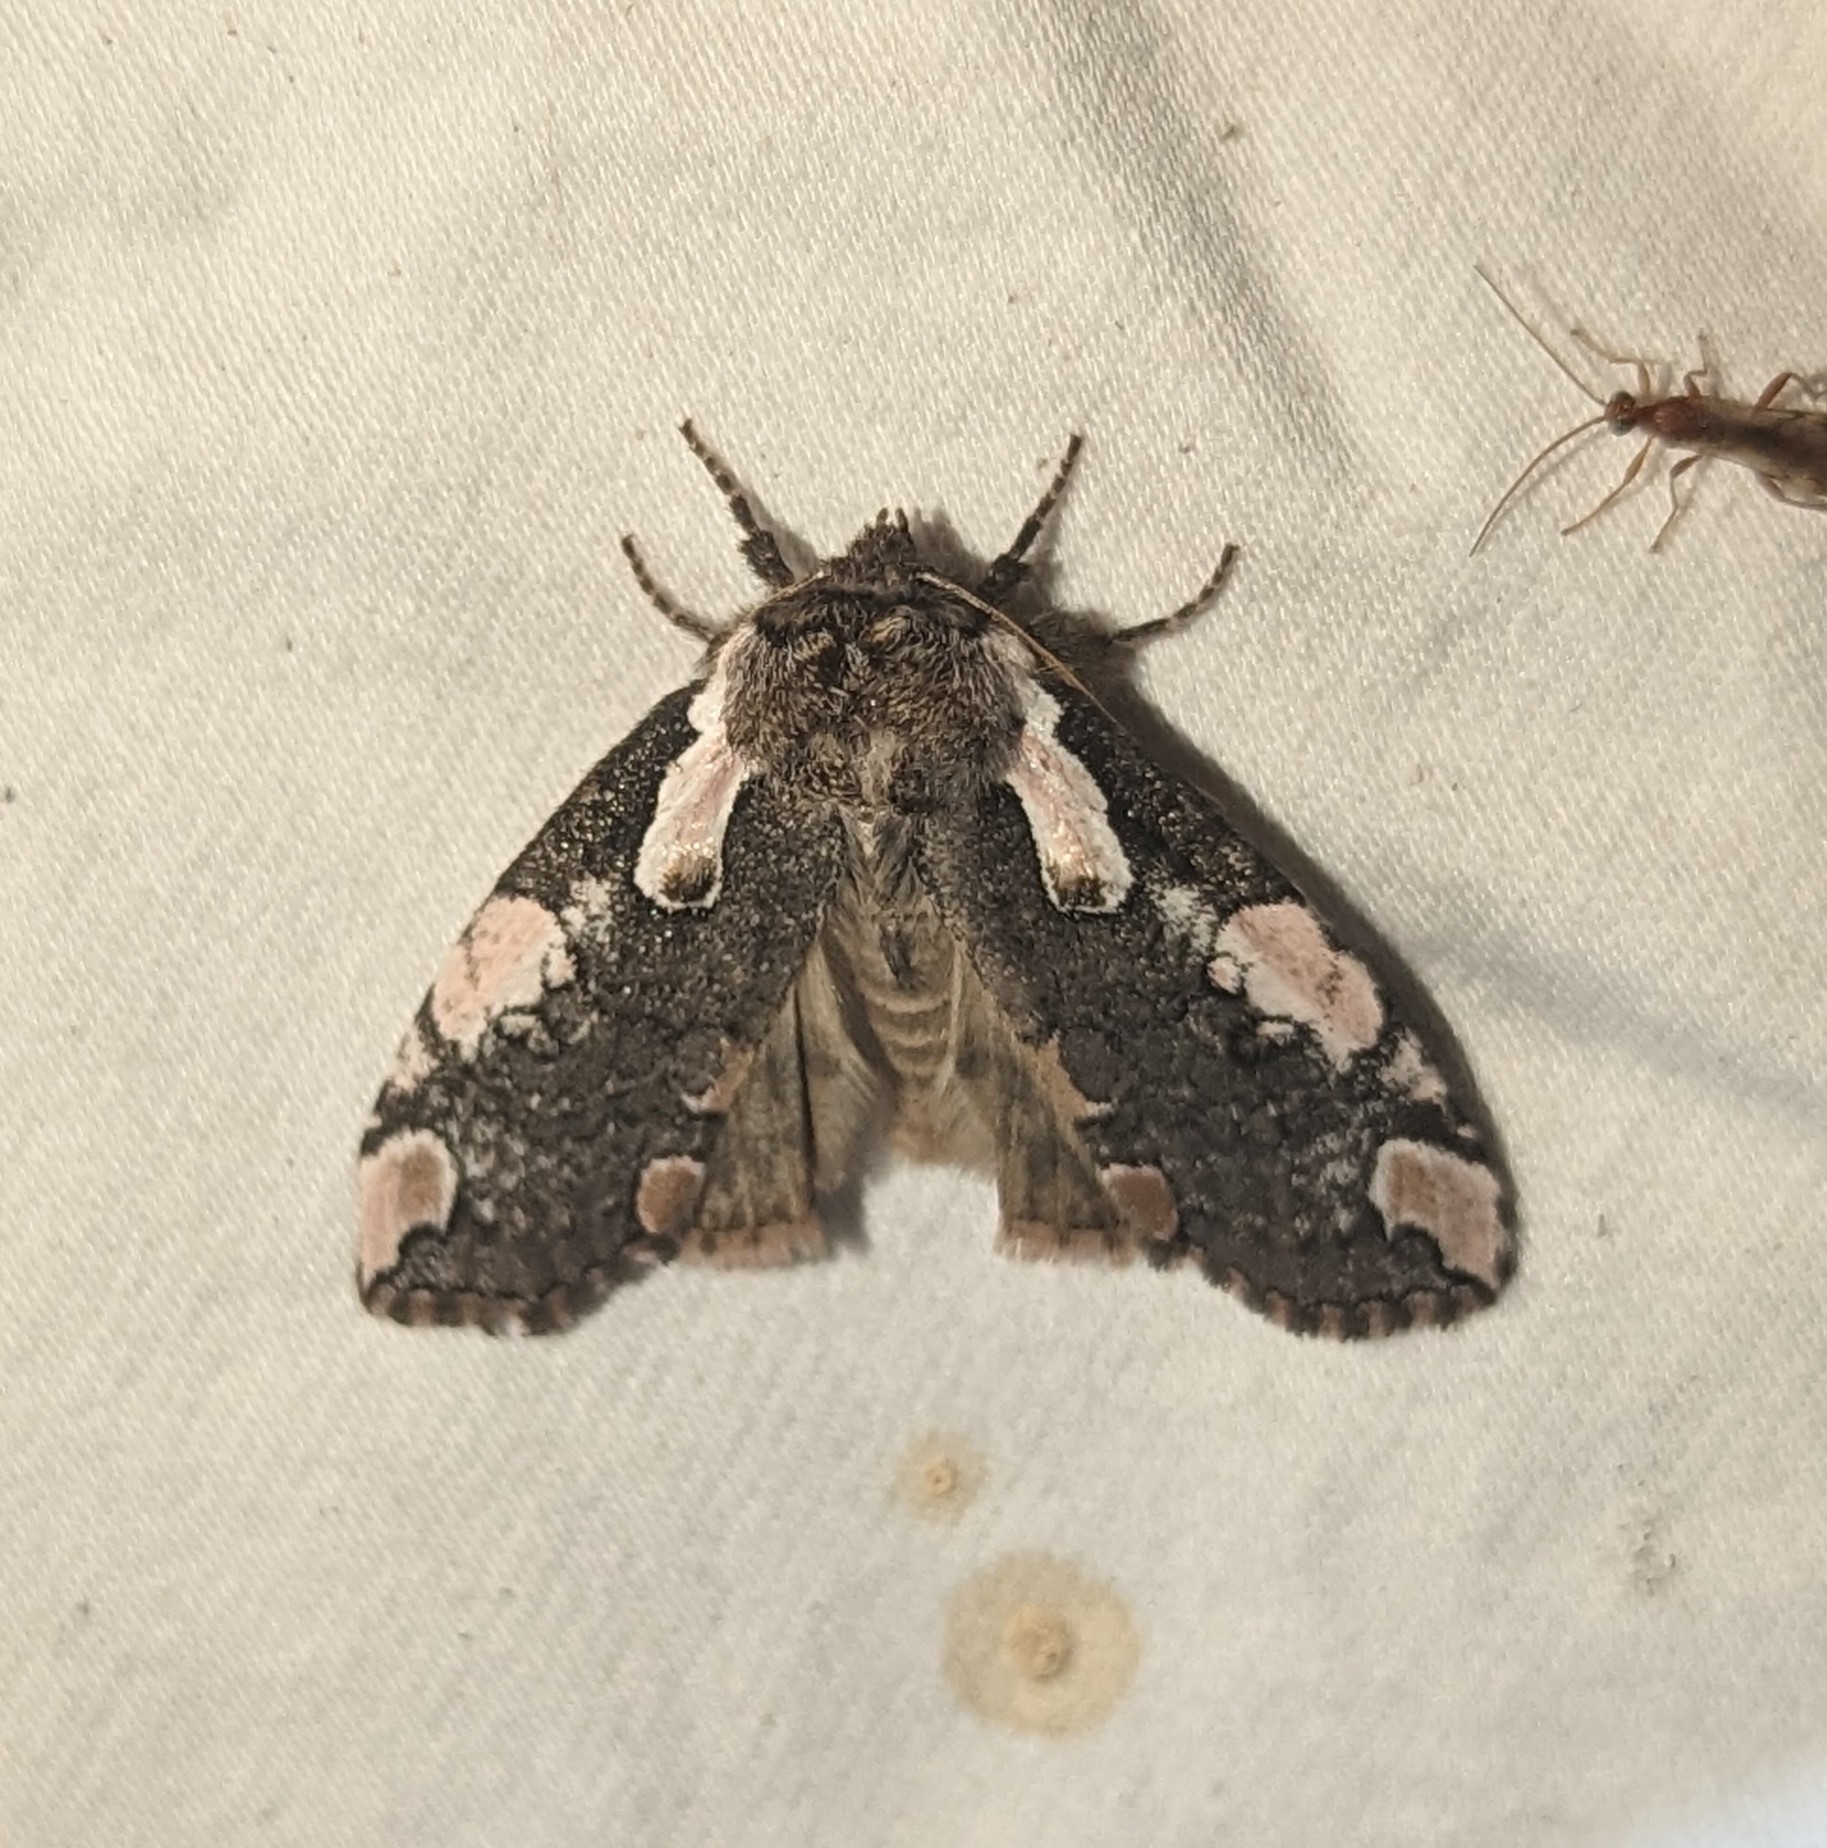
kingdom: Animalia
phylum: Arthropoda
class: Insecta
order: Lepidoptera
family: Drepanidae
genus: Euthyatira
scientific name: Euthyatira pudens
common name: Dogwood thyatirid moth
